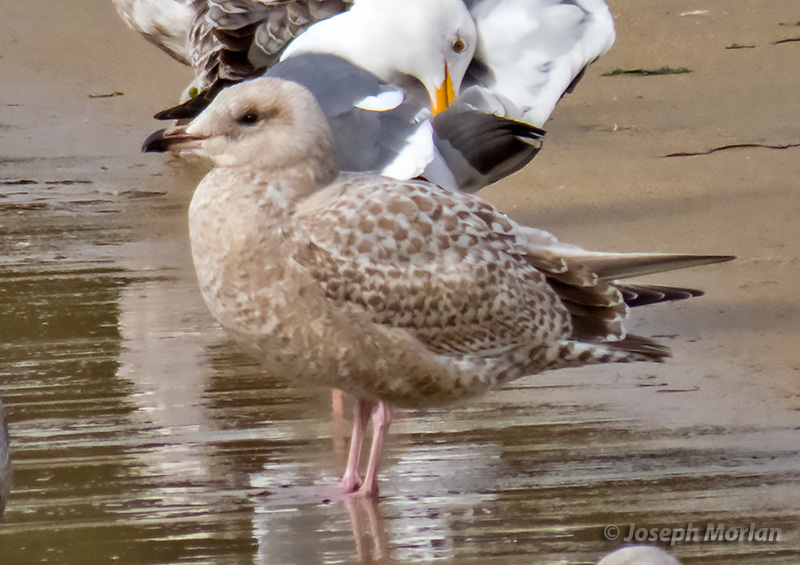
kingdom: Animalia
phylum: Chordata
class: Aves
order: Charadriiformes
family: Laridae
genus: Larus
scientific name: Larus argentatus
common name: Herring gull
